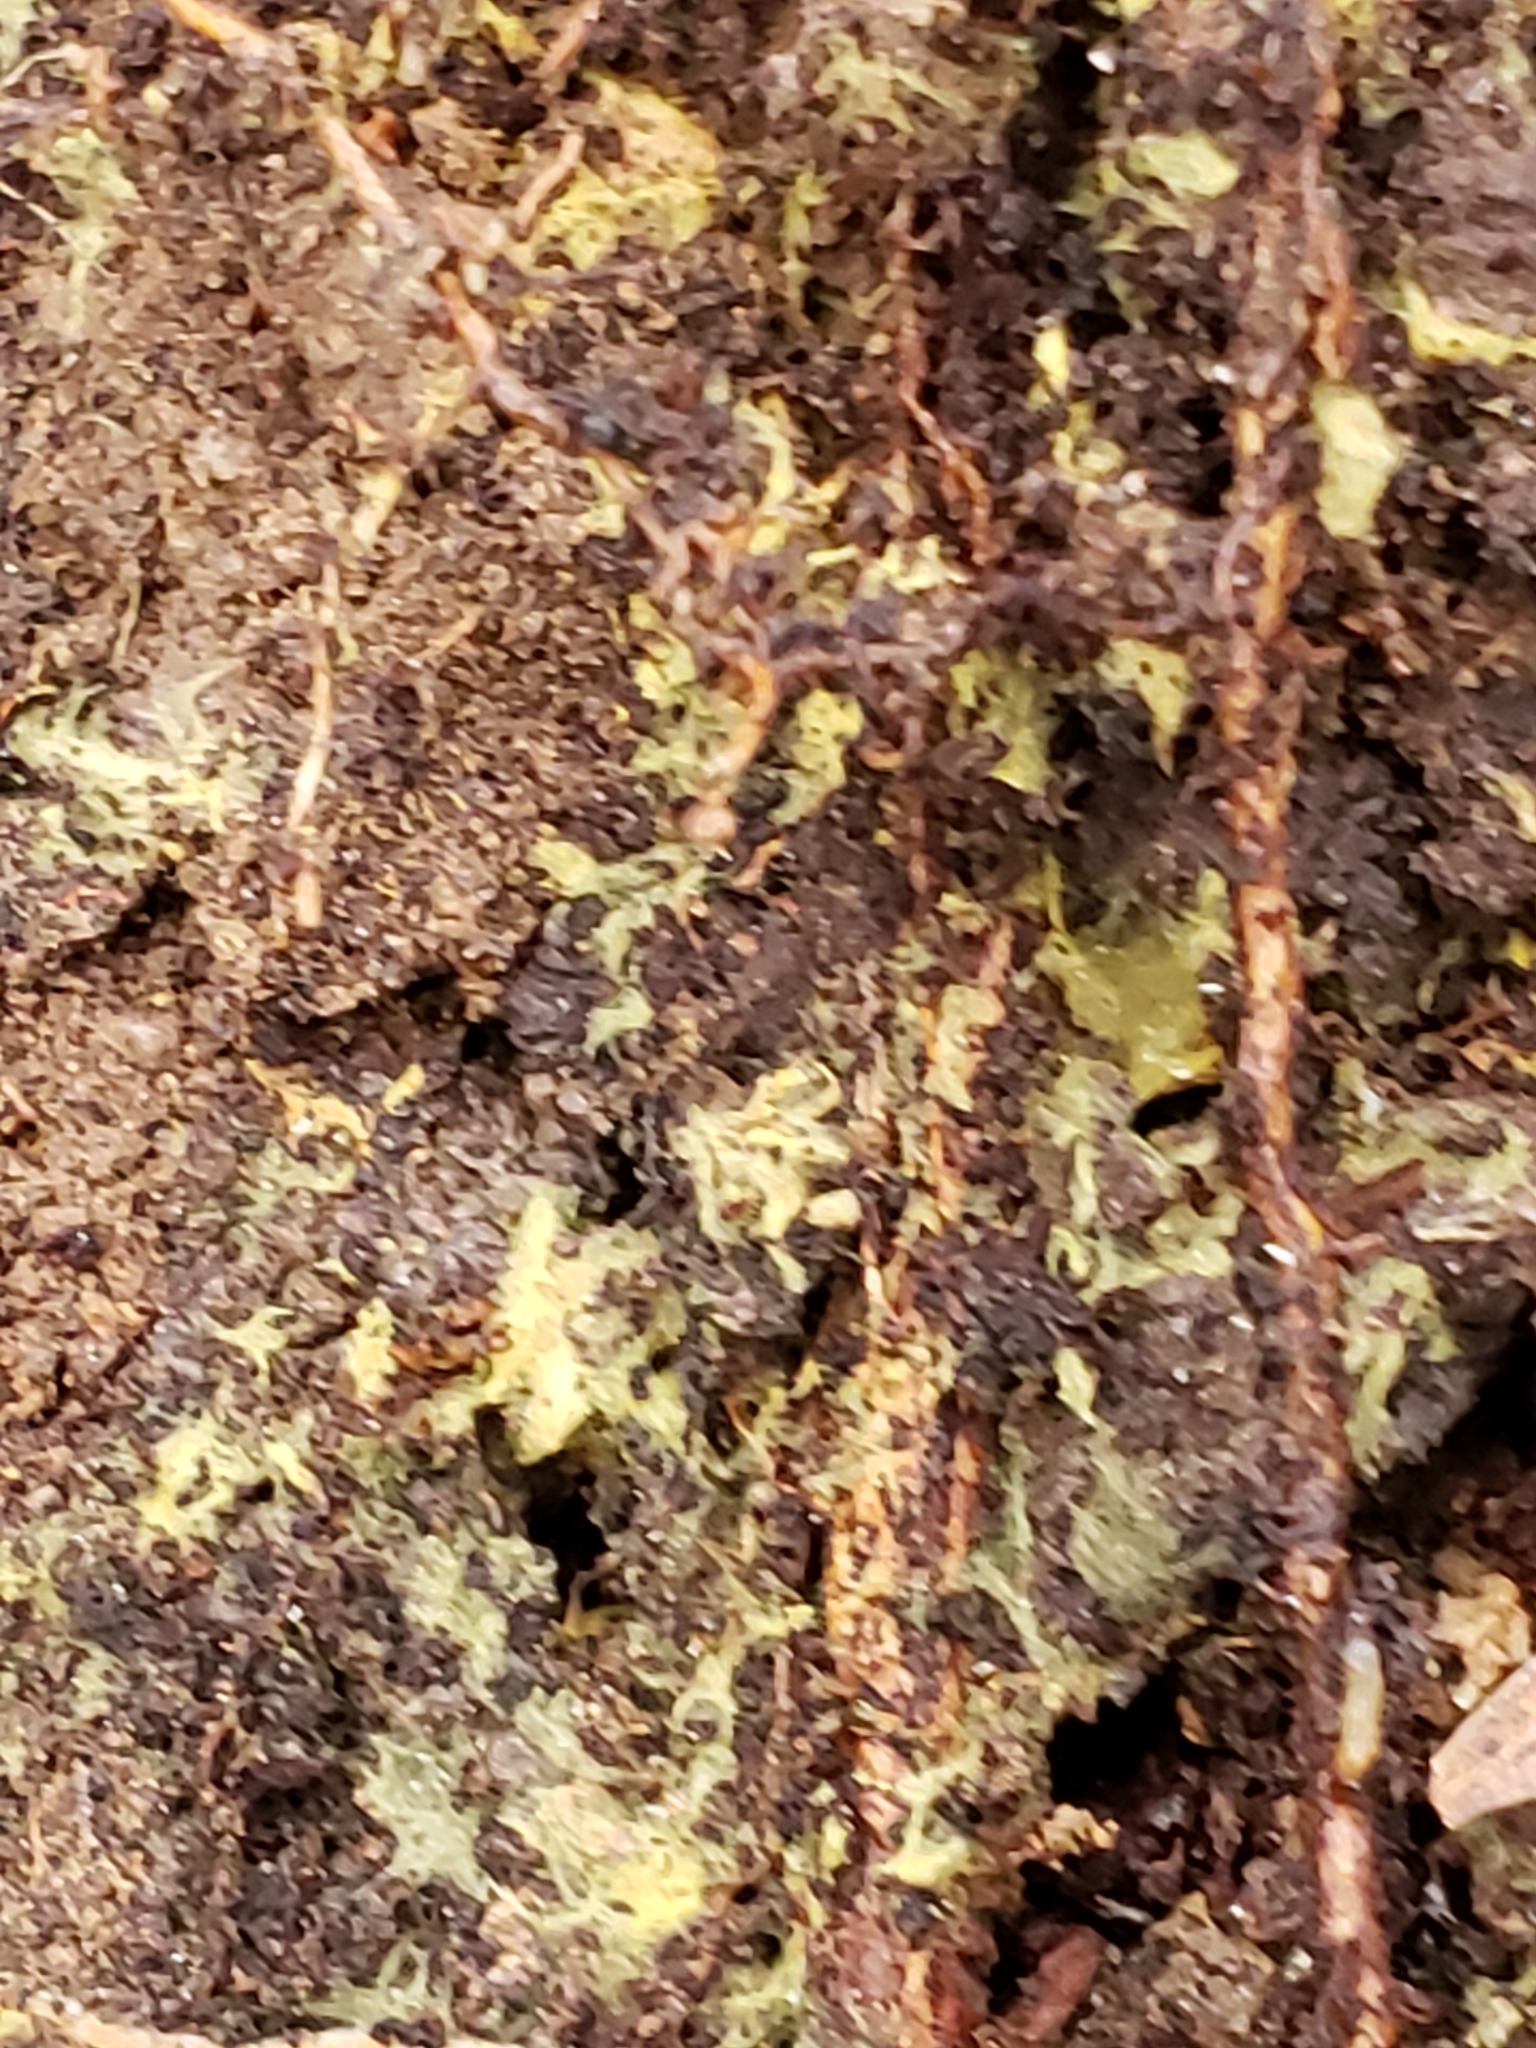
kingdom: Animalia
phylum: Arthropoda
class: Insecta
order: Hymenoptera
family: Formicidae
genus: Prenolepis
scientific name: Prenolepis imparis
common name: Small honey ant
